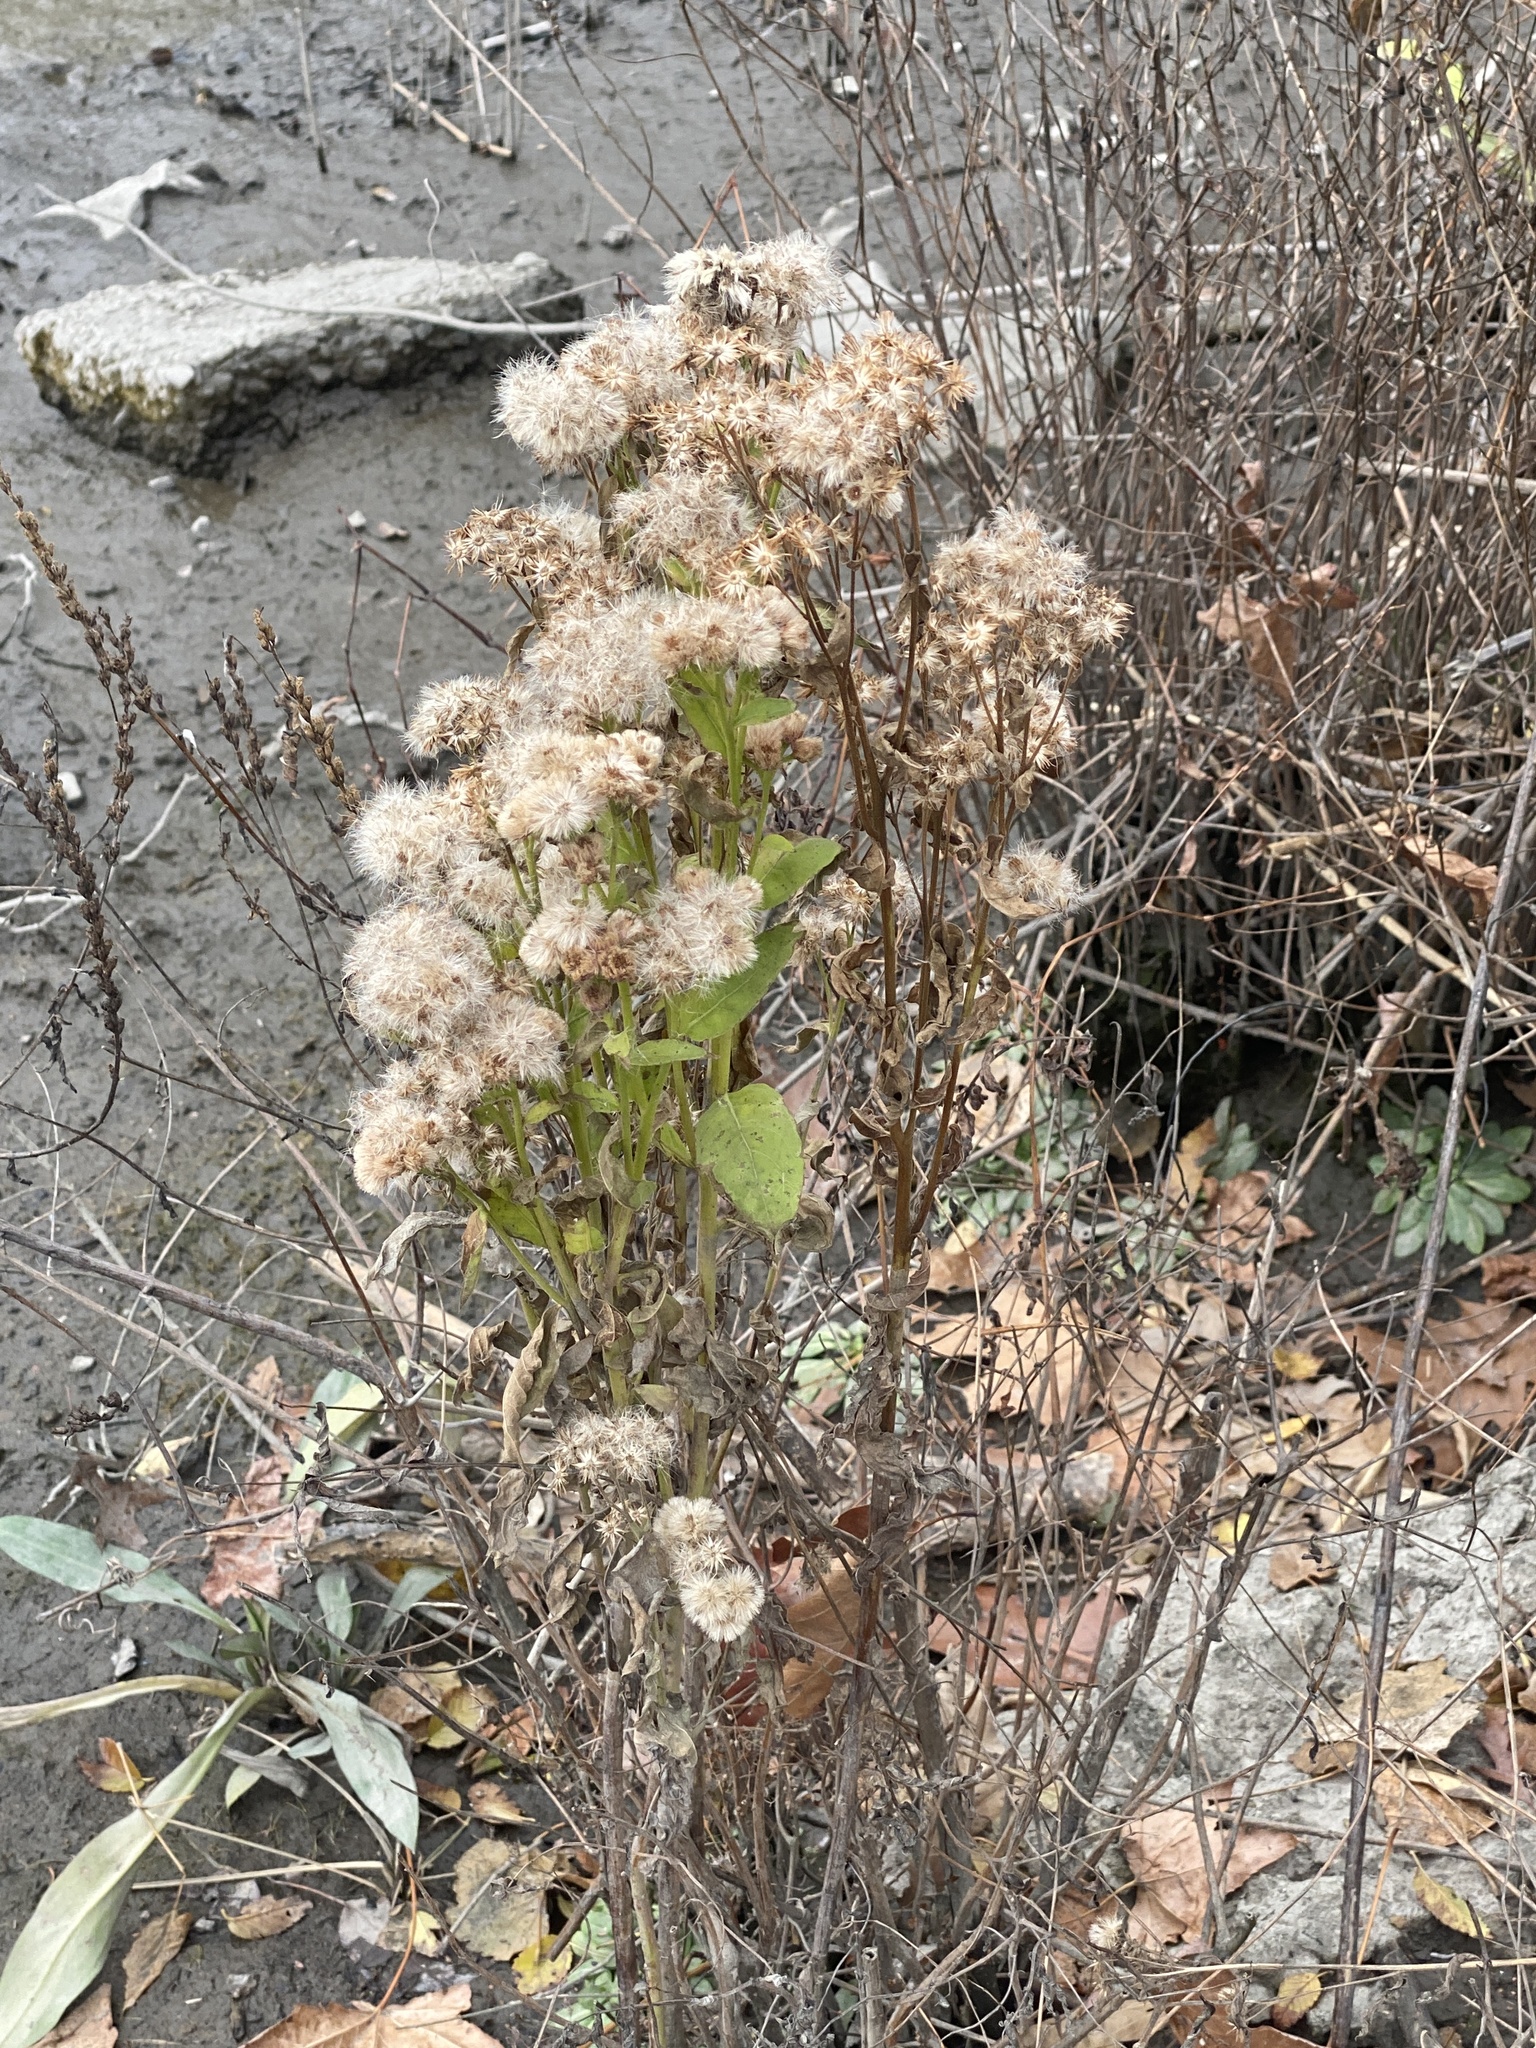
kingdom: Plantae
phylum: Tracheophyta
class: Magnoliopsida
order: Asterales
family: Asteraceae
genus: Pluchea
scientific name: Pluchea odorata
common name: Saltmarsh fleabane
